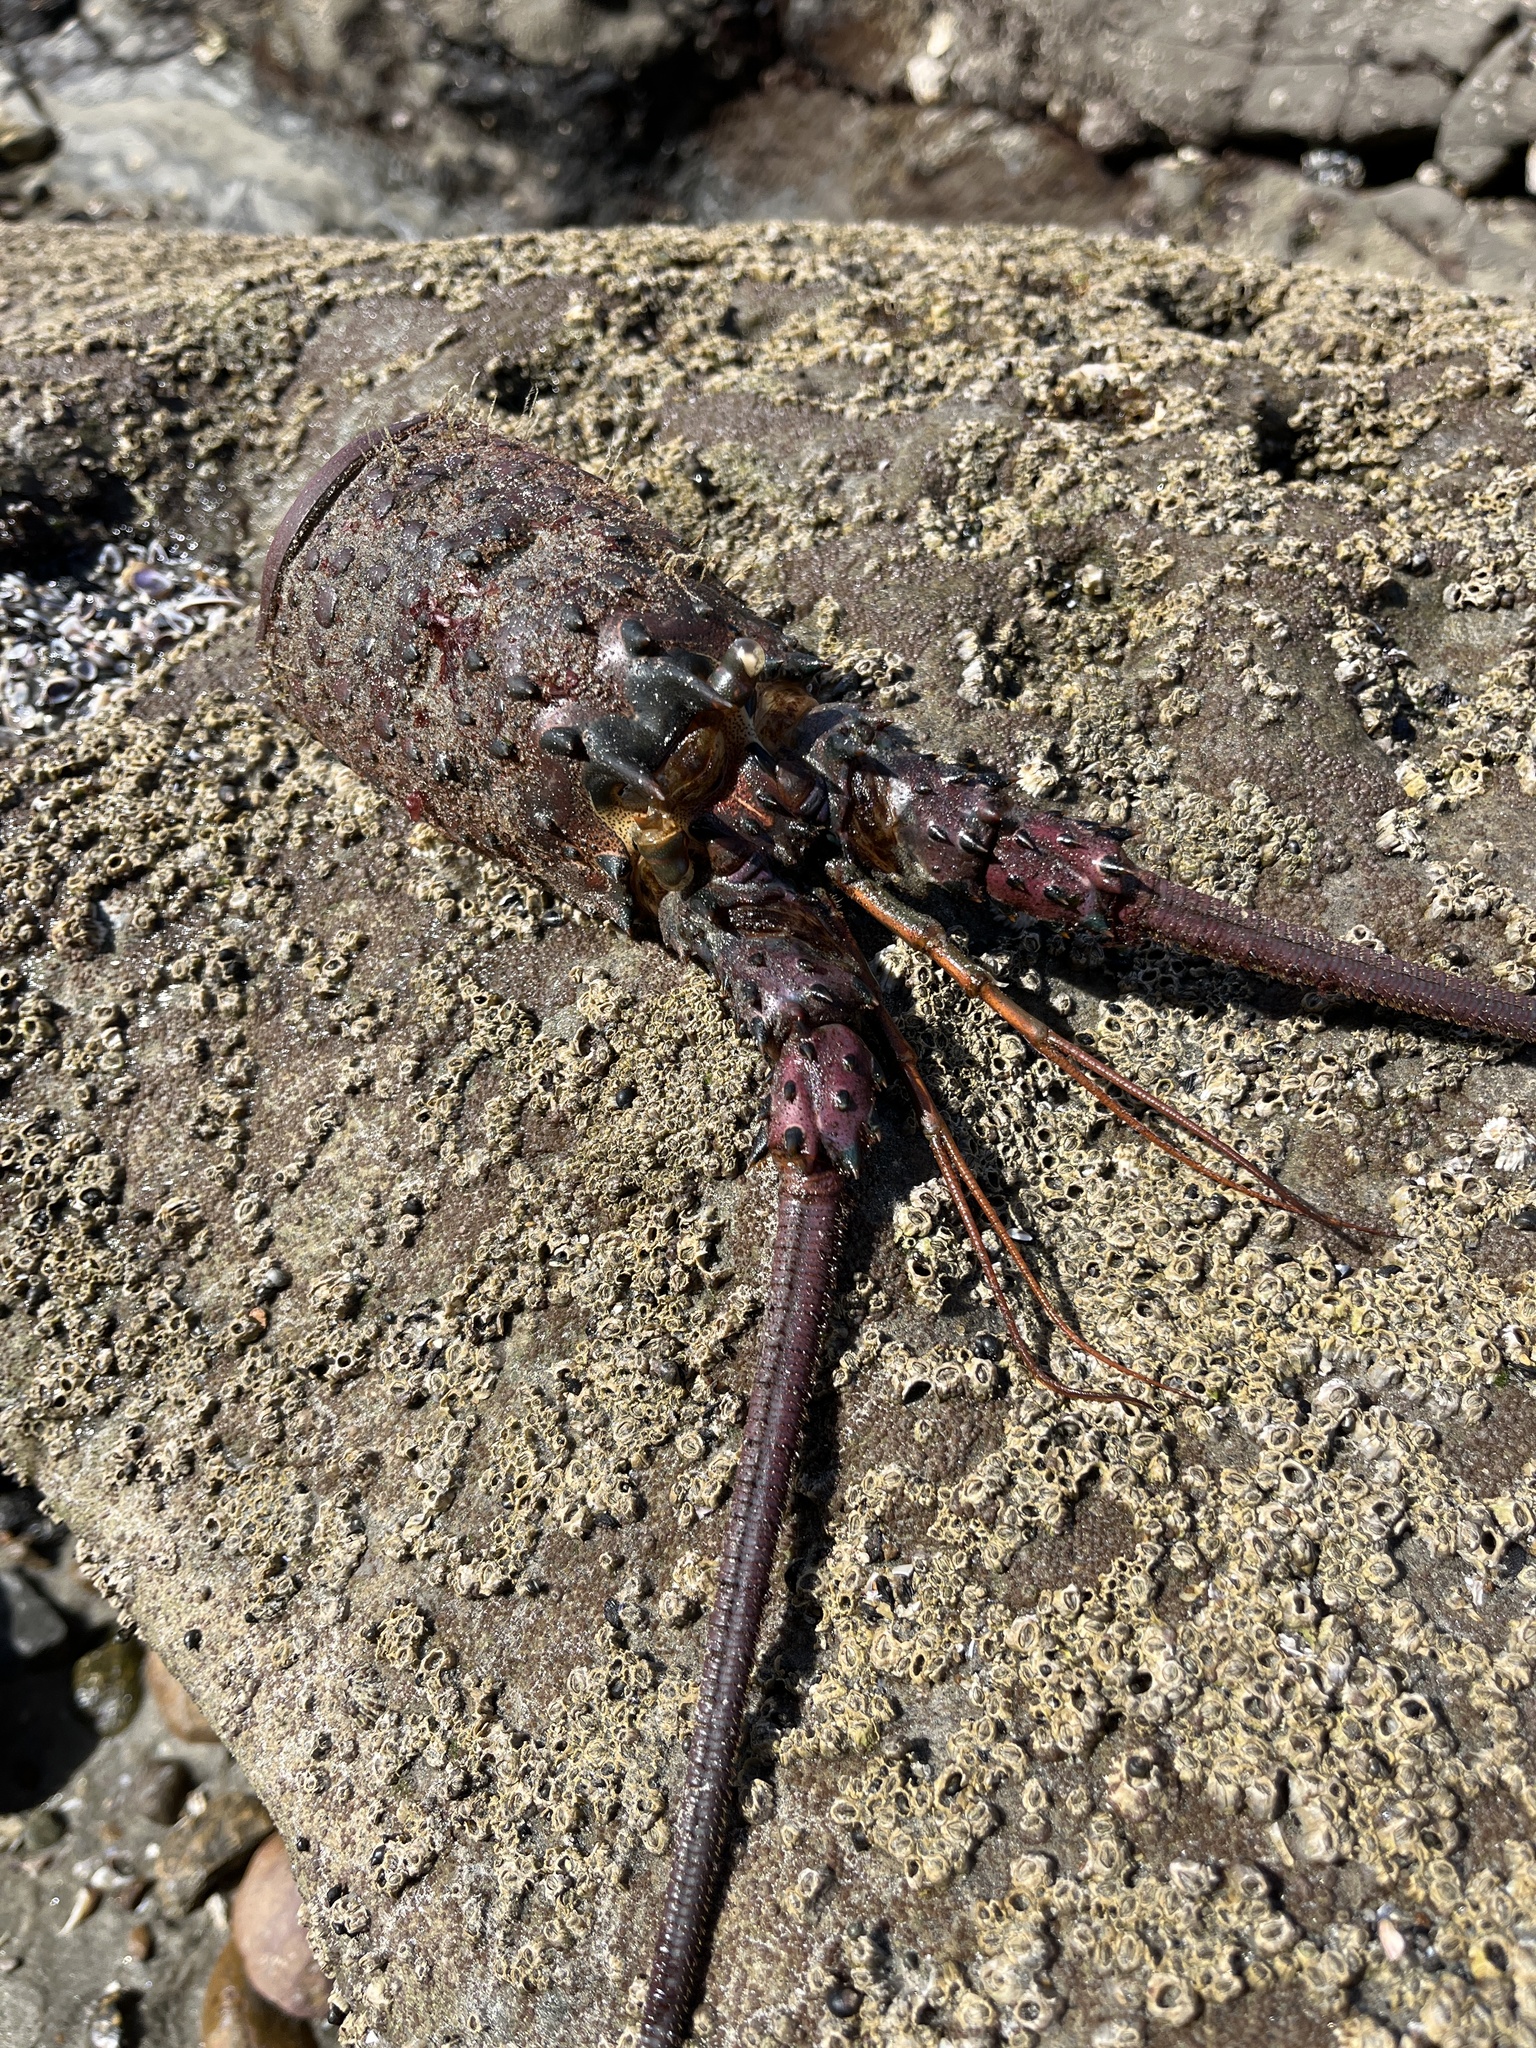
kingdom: Animalia
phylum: Arthropoda
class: Malacostraca
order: Decapoda
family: Palinuridae
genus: Panulirus
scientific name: Panulirus interruptus
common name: California spiny lobster
